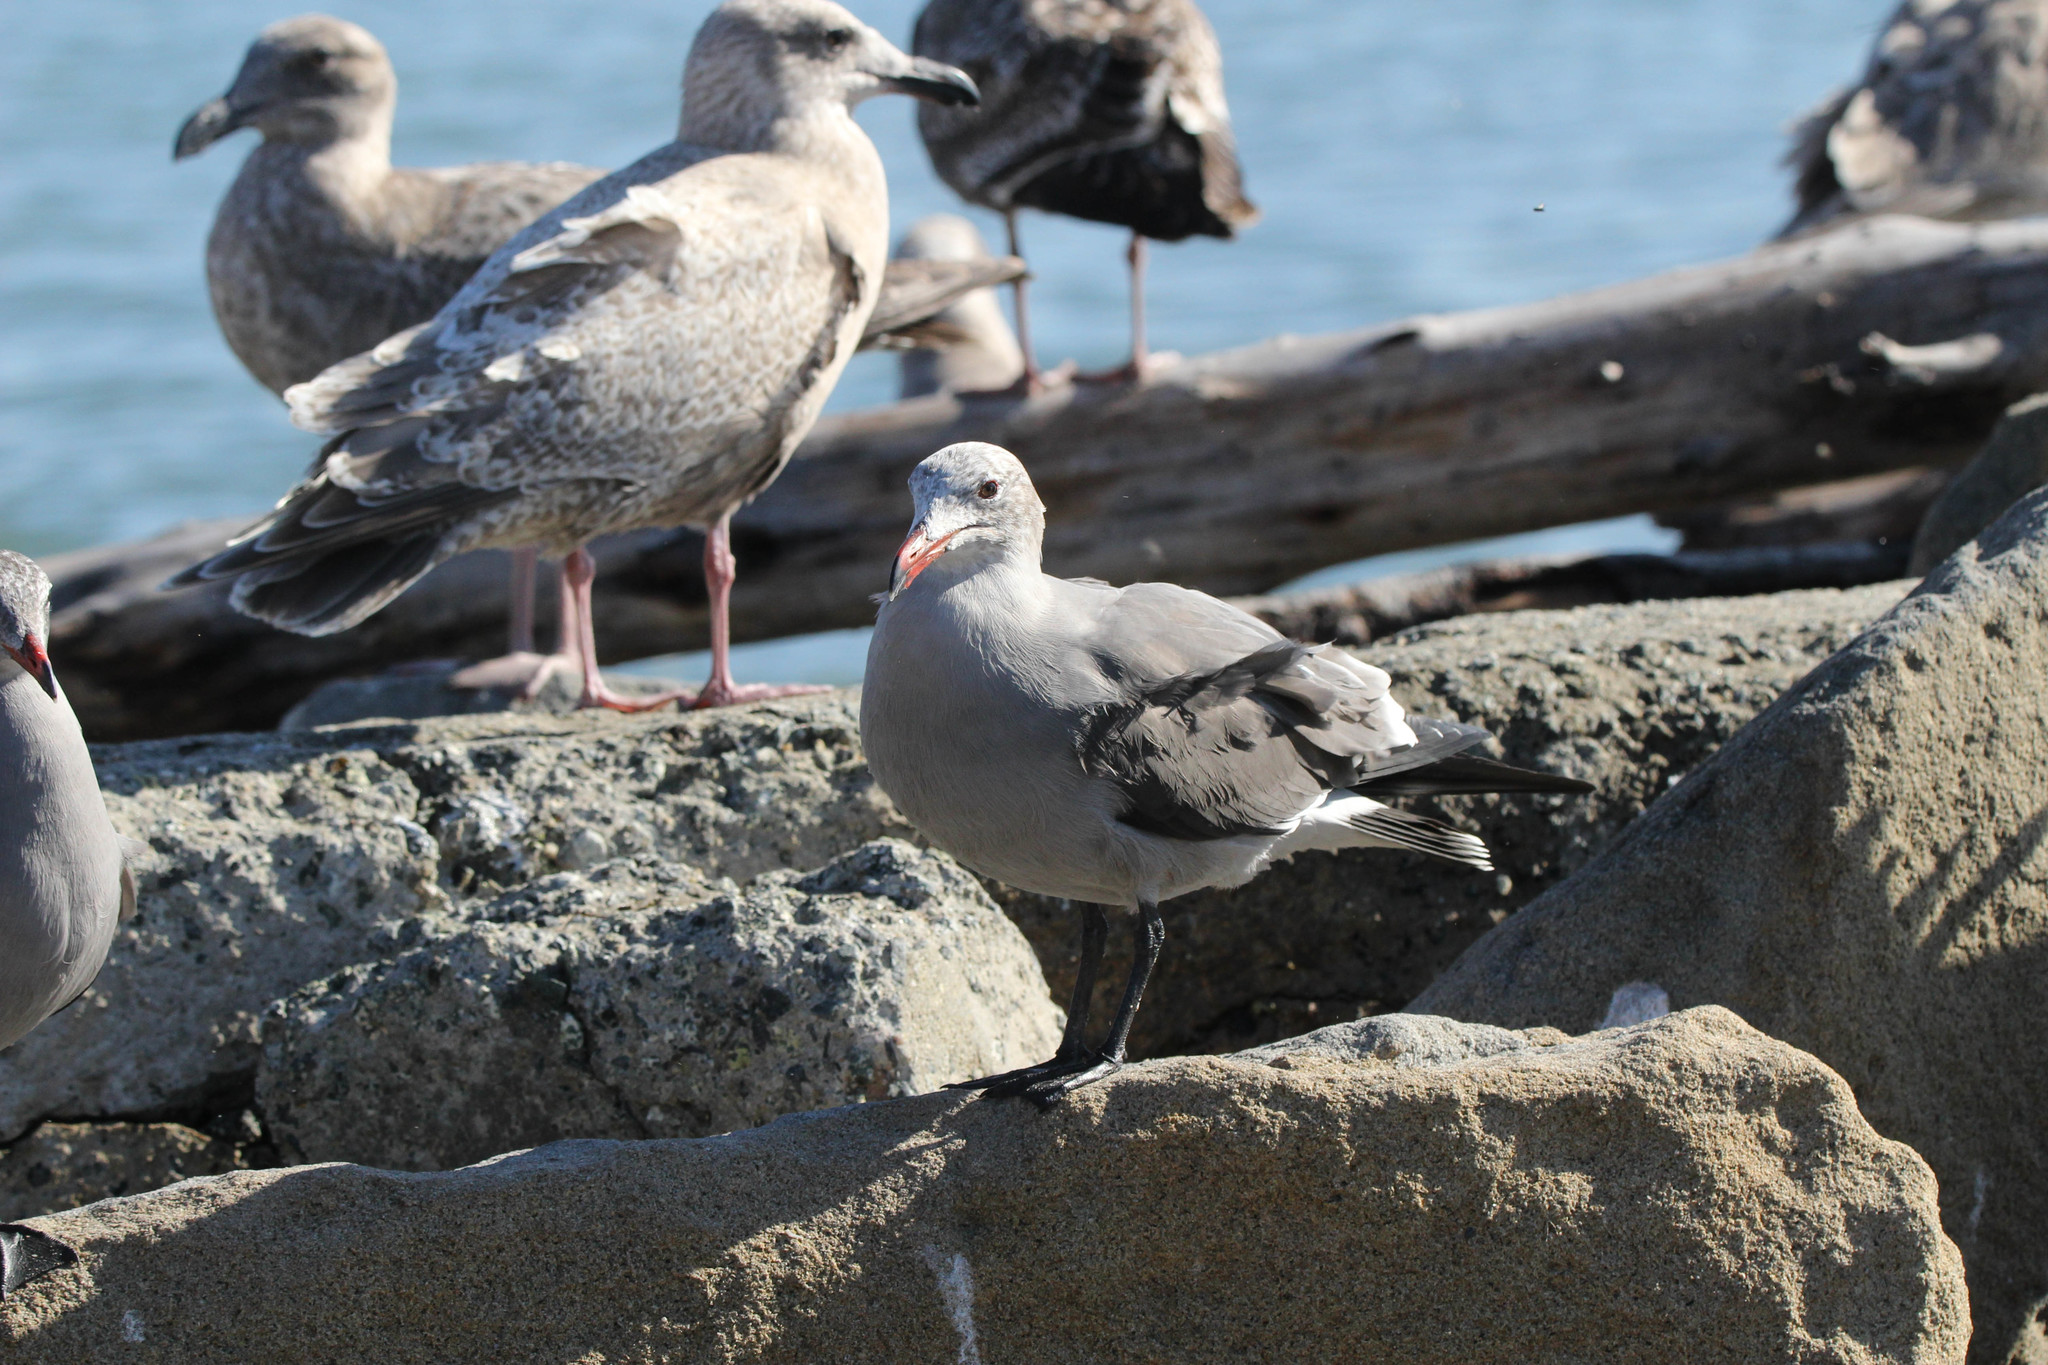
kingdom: Animalia
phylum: Chordata
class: Aves
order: Charadriiformes
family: Laridae
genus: Larus
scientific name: Larus heermanni
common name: Heermann's gull
